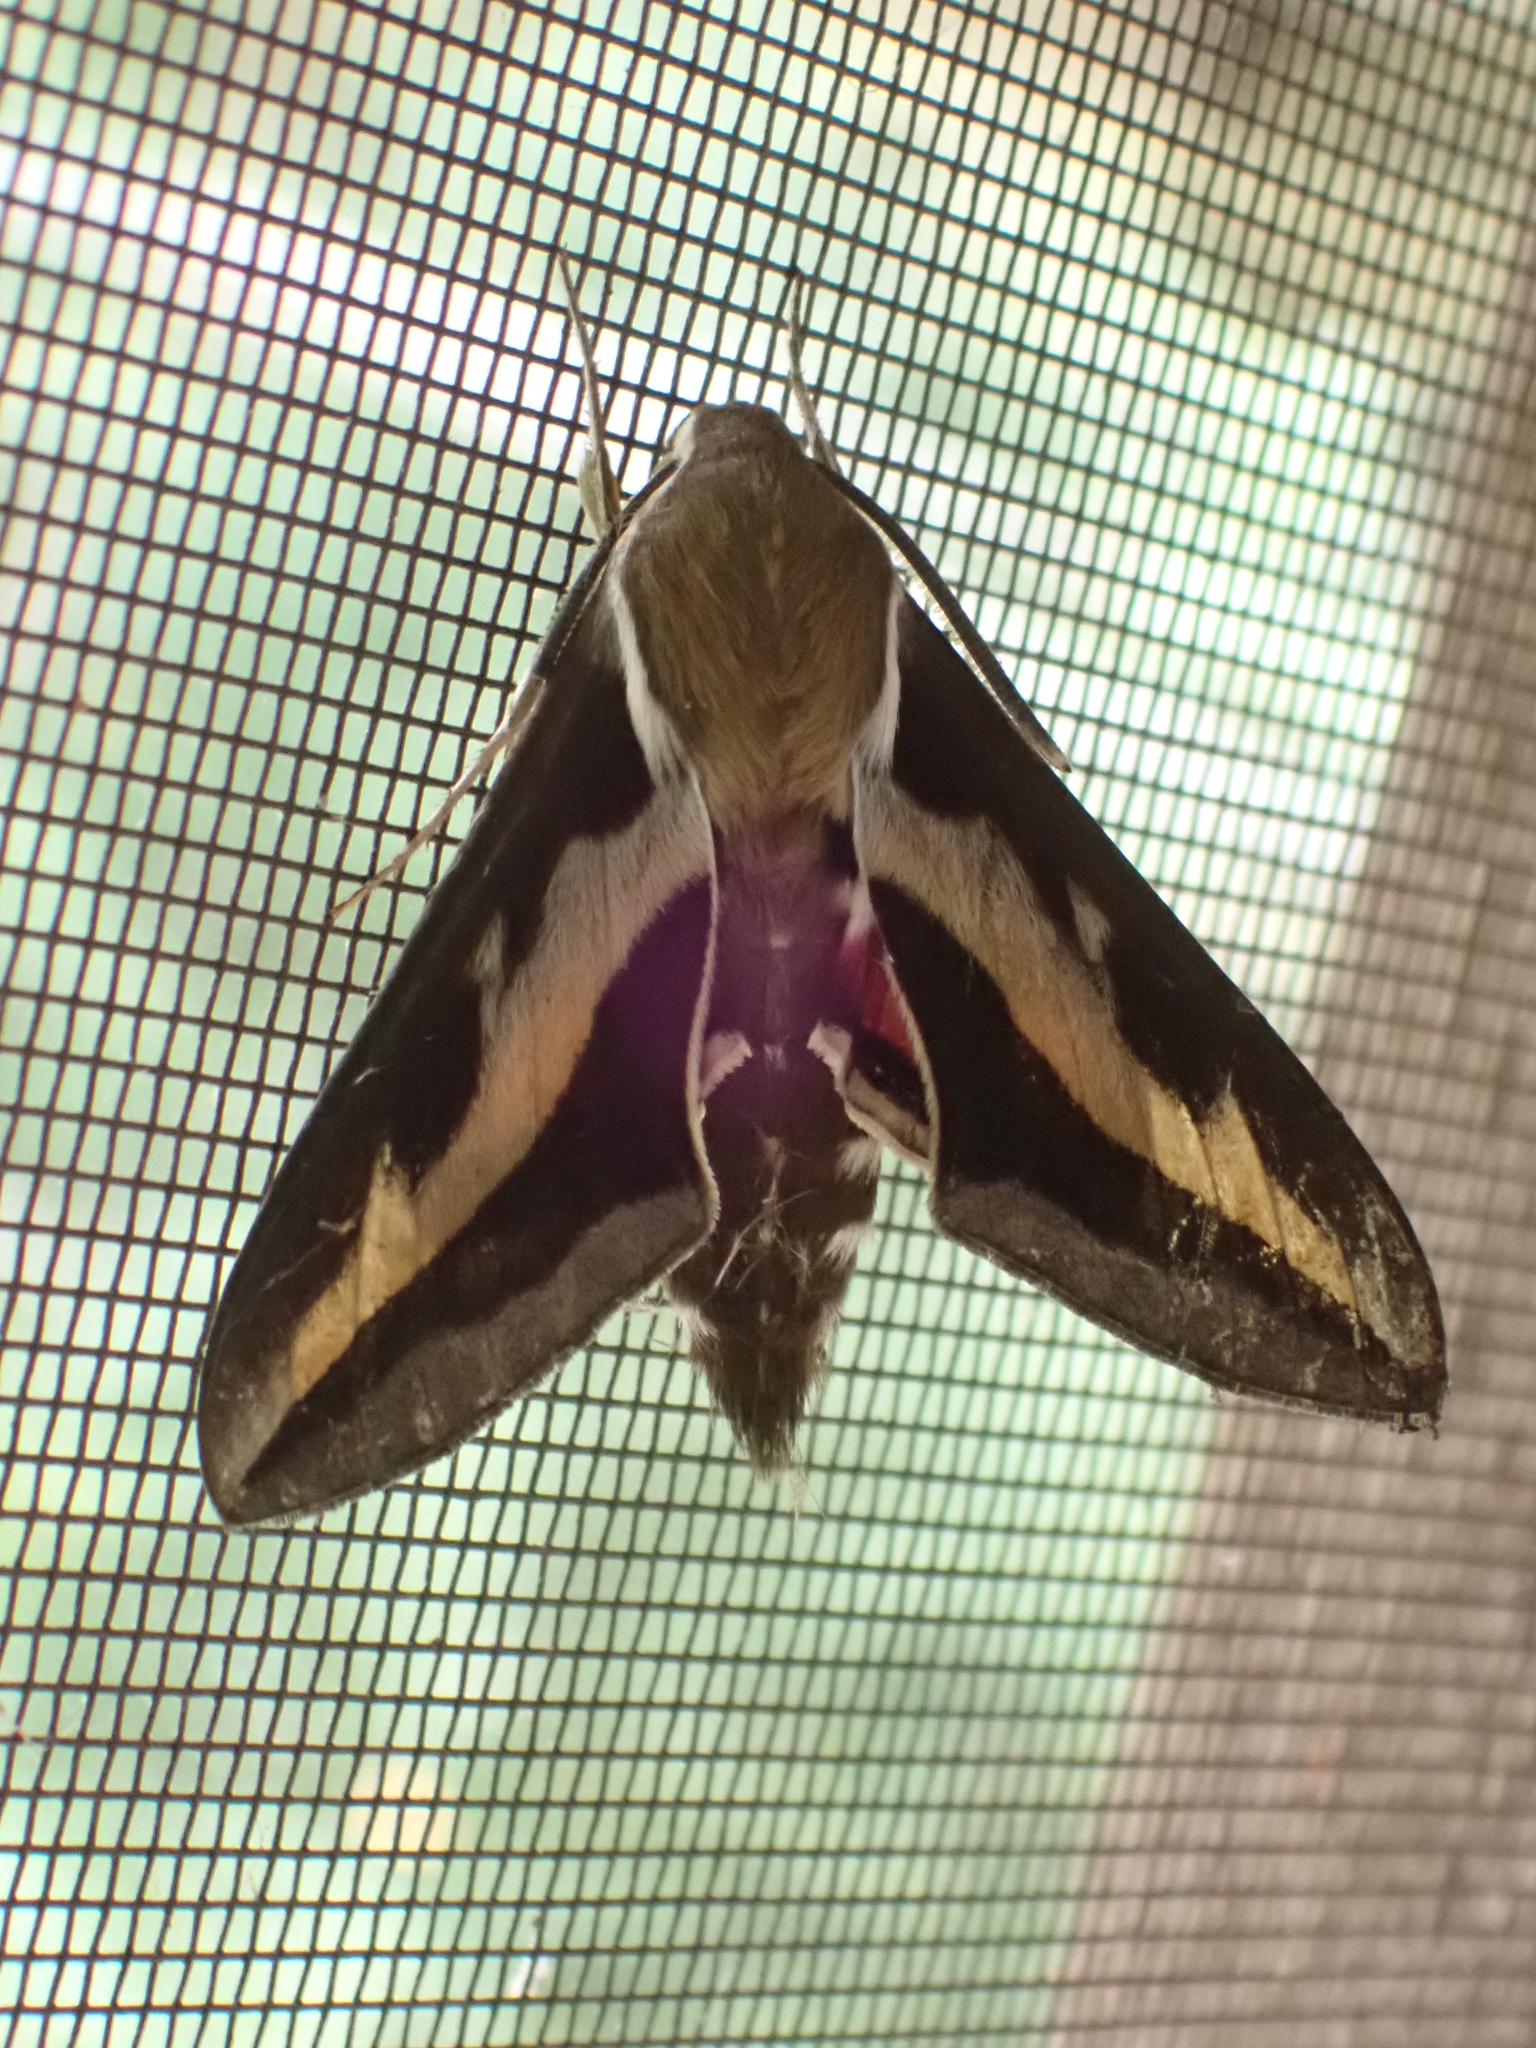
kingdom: Animalia
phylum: Arthropoda
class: Insecta
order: Lepidoptera
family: Sphingidae
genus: Hyles
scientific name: Hyles gallii
